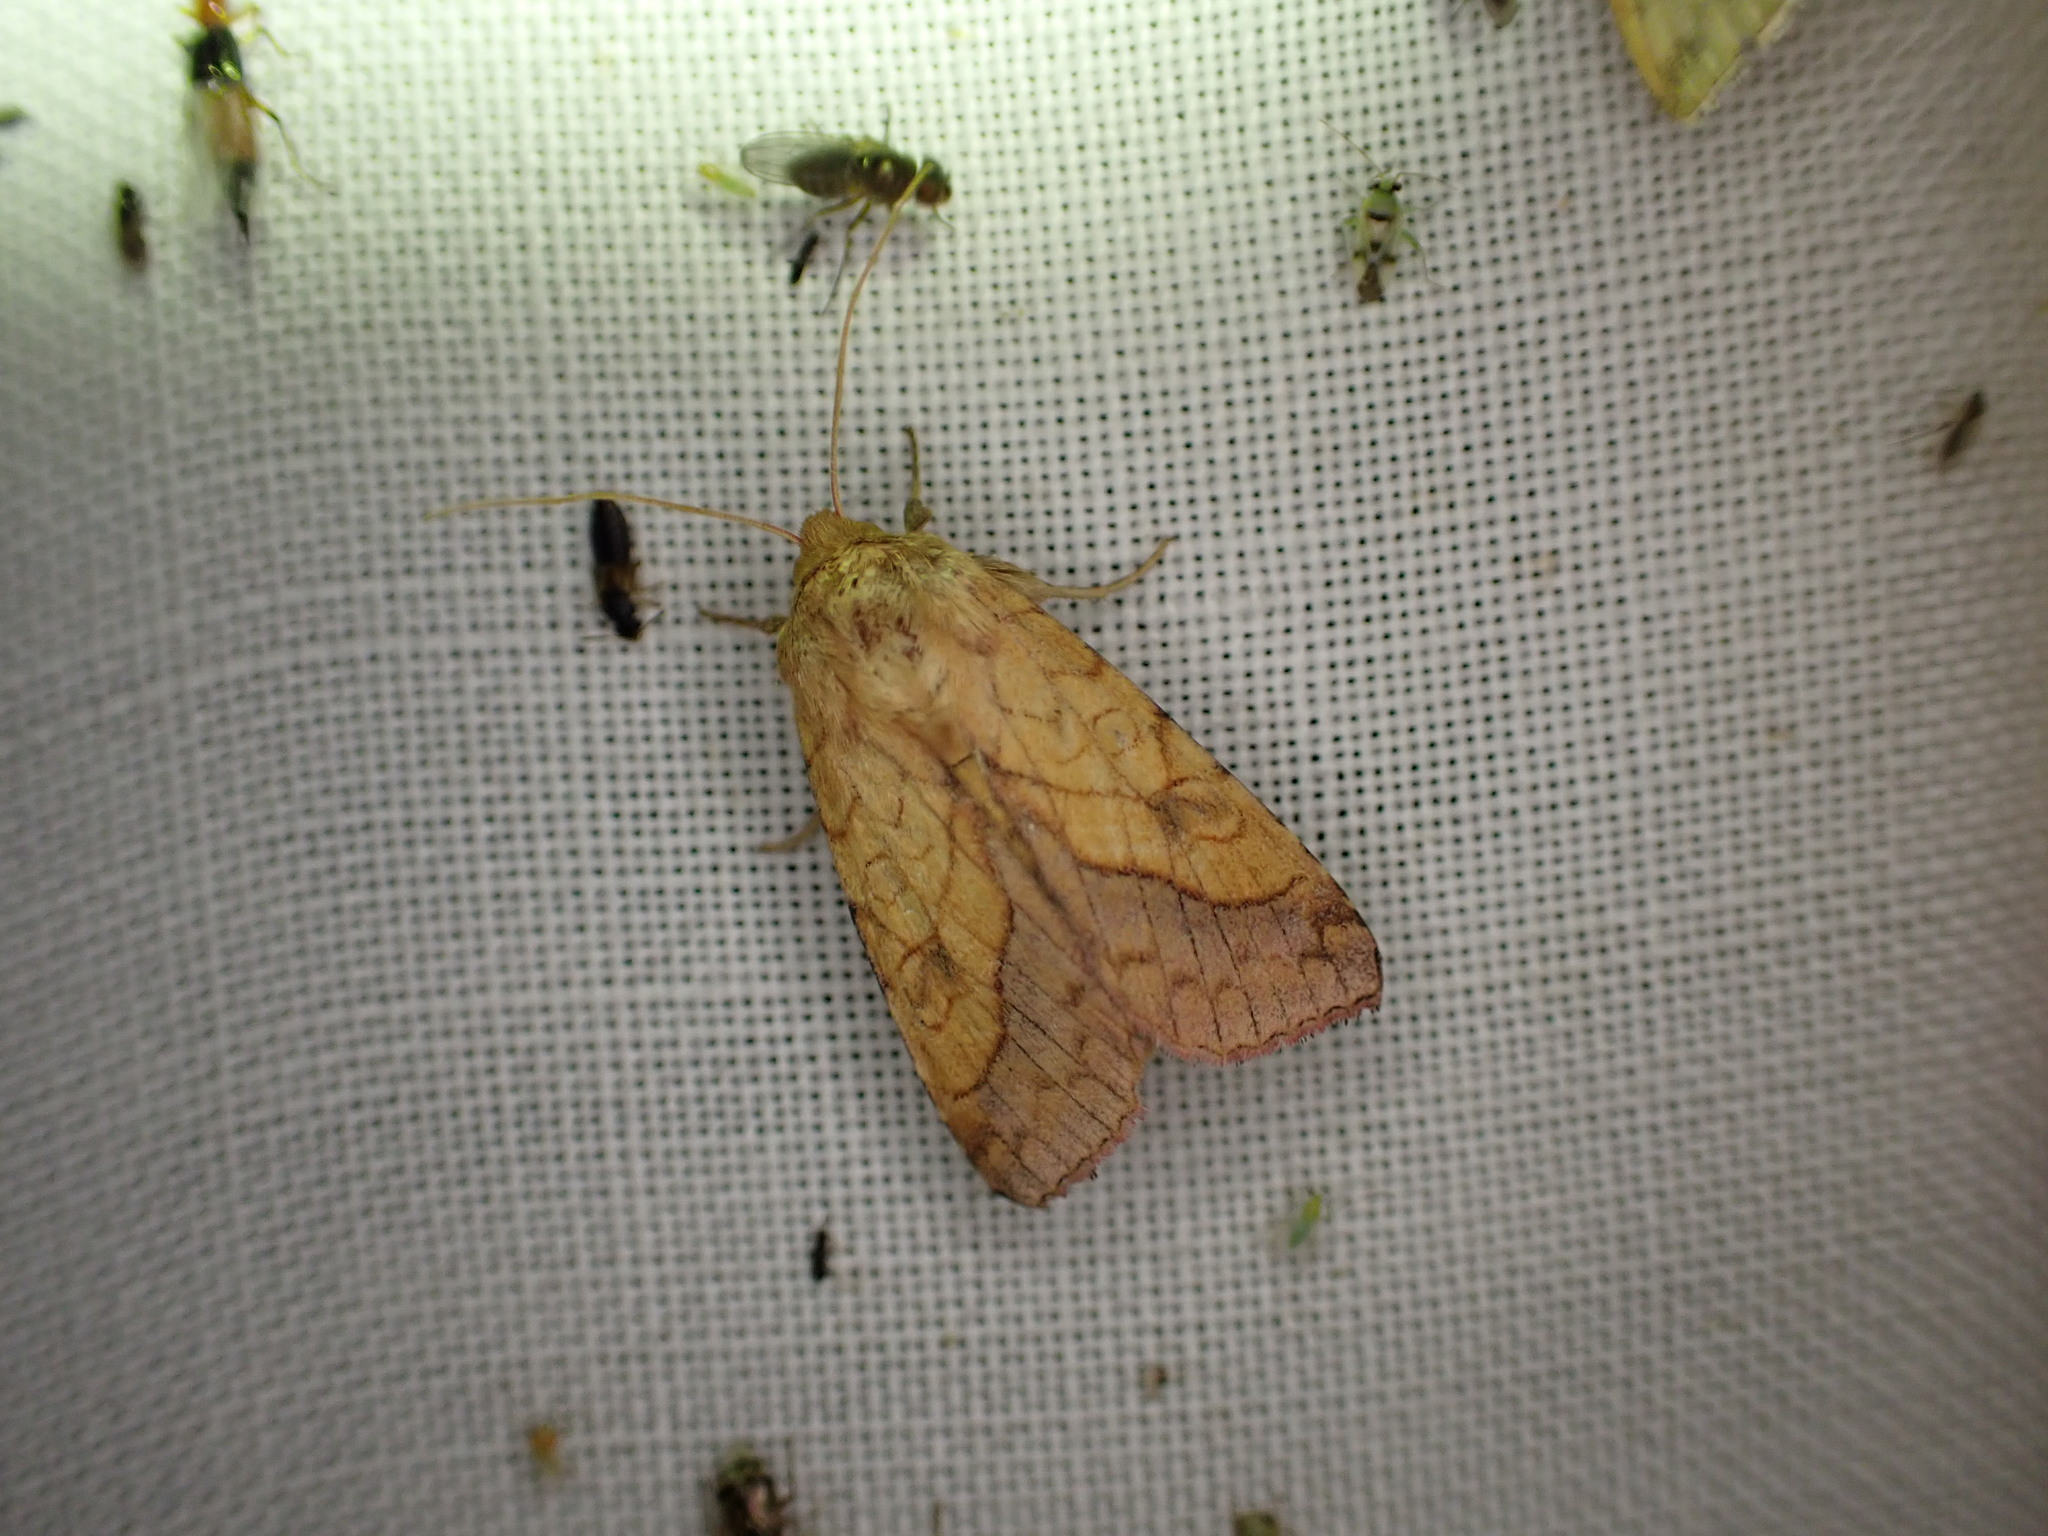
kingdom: Animalia
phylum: Arthropoda
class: Insecta
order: Lepidoptera
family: Noctuidae
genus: Pyrrhia
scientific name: Pyrrhia umbra
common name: Bordered sallow
